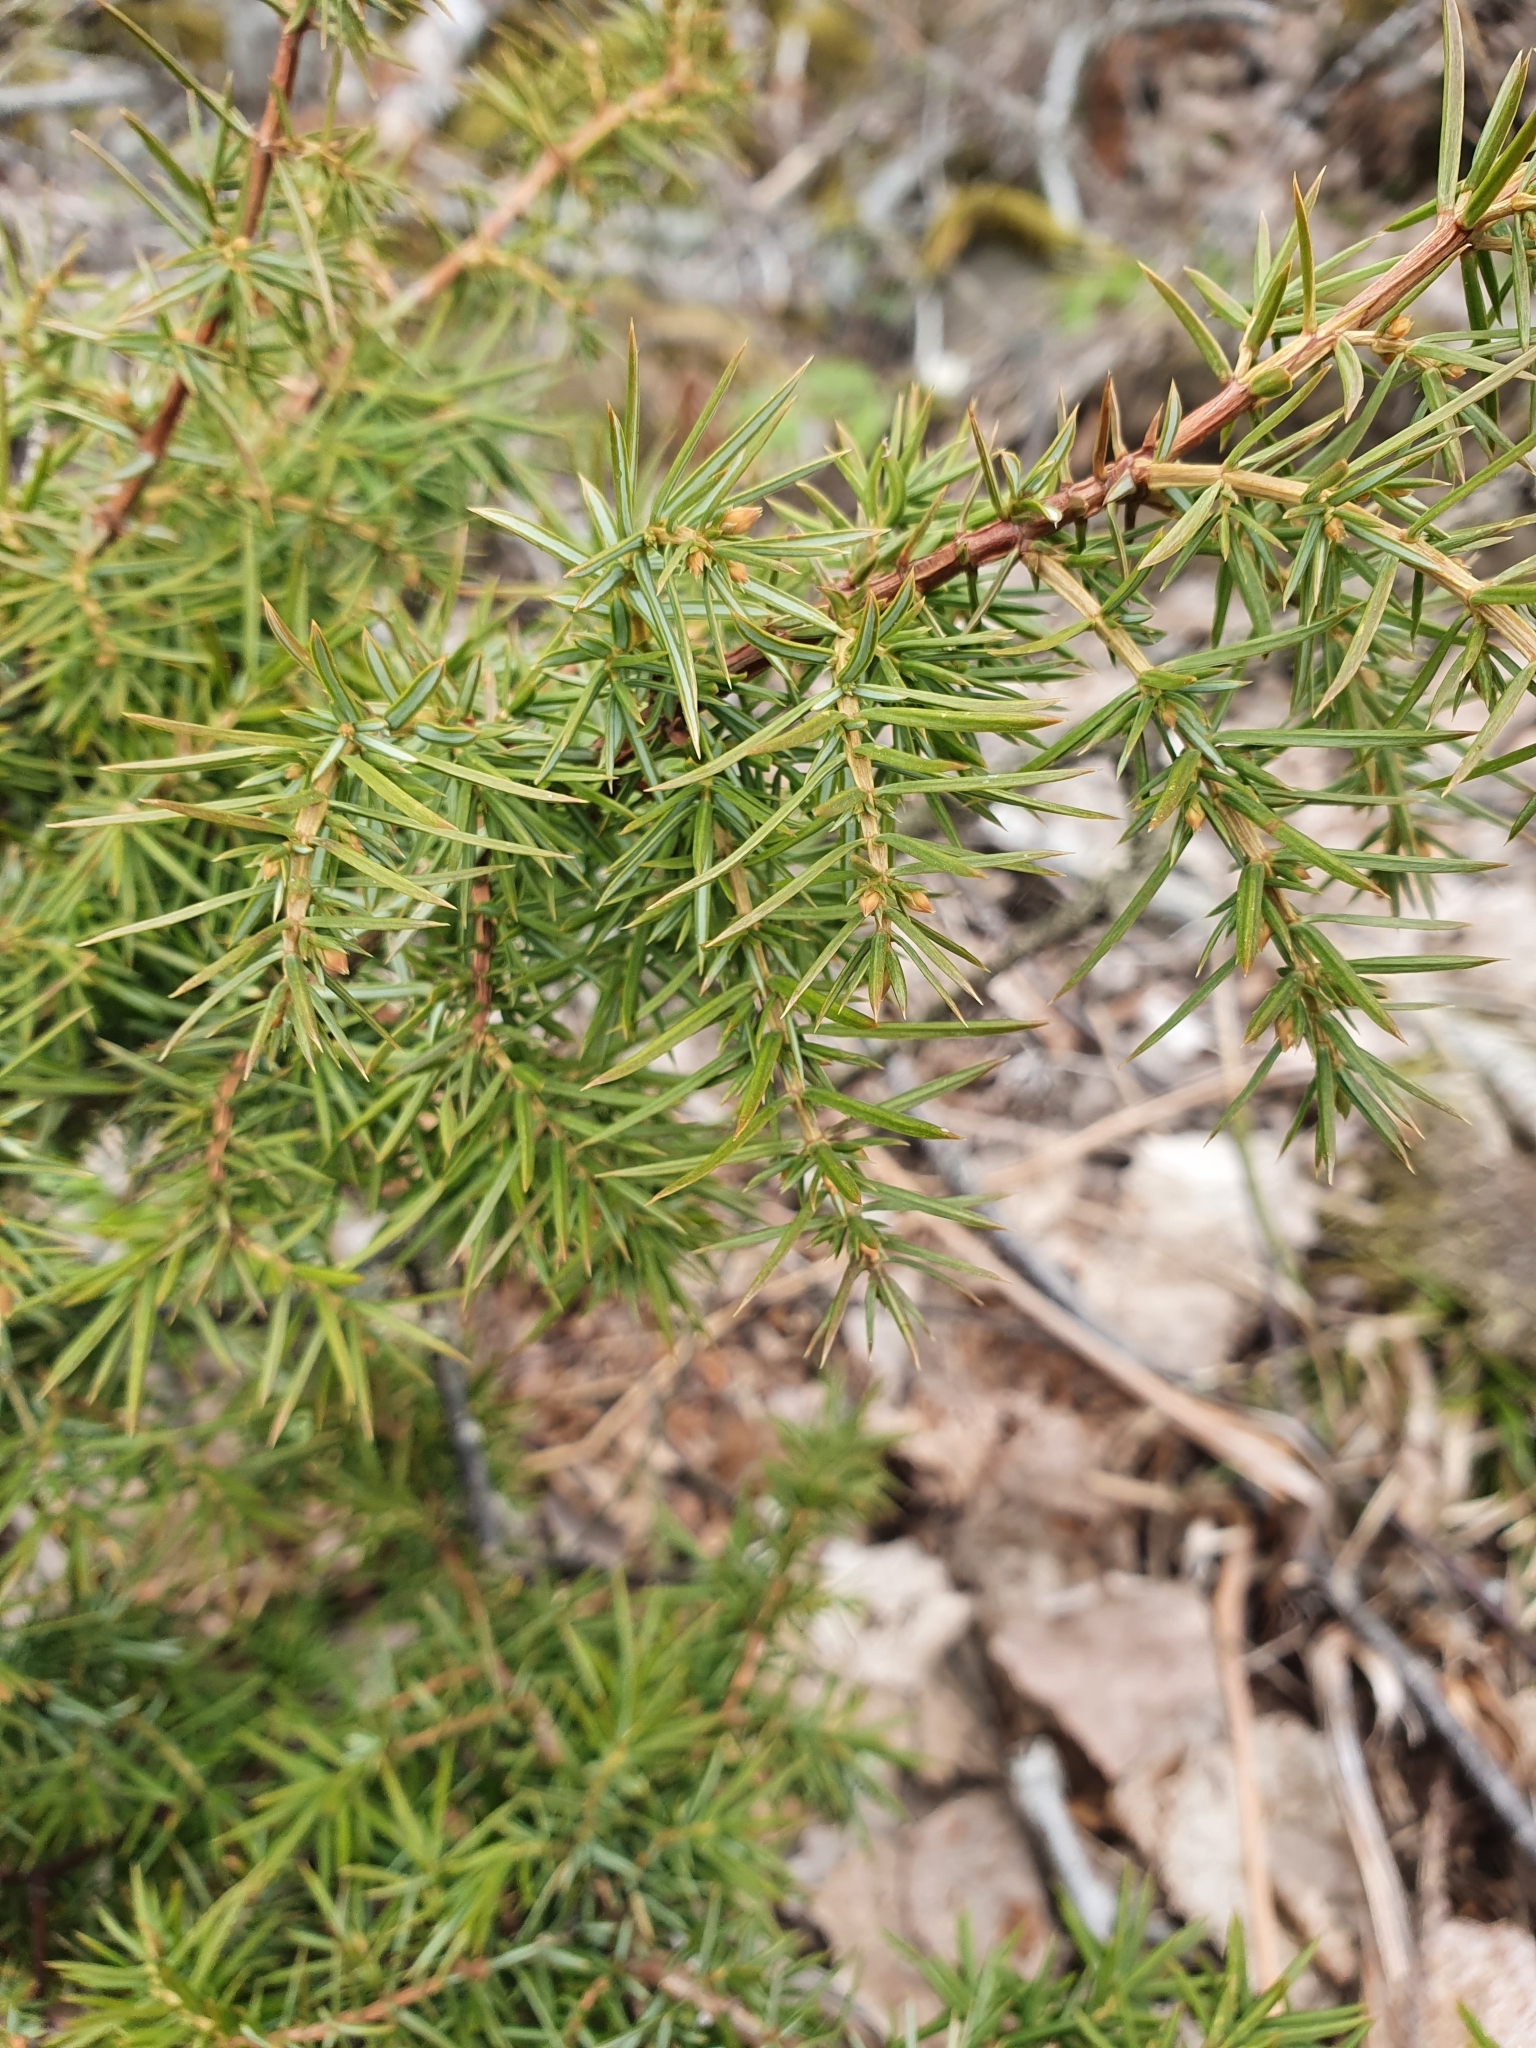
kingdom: Plantae
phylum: Tracheophyta
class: Pinopsida
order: Pinales
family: Cupressaceae
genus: Juniperus
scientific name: Juniperus communis
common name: Common juniper
